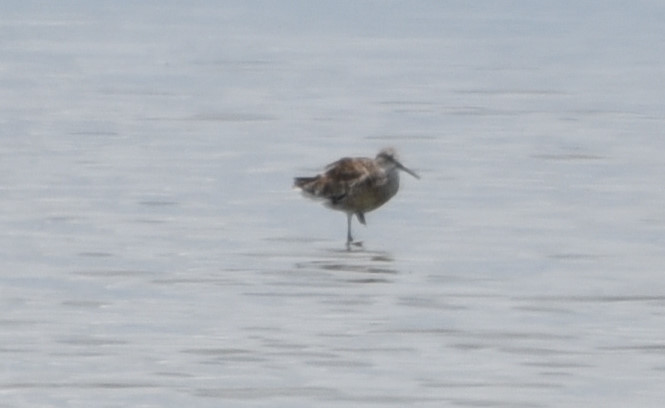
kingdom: Animalia
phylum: Chordata
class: Aves
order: Charadriiformes
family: Scolopacidae
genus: Tringa
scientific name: Tringa semipalmata
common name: Willet
